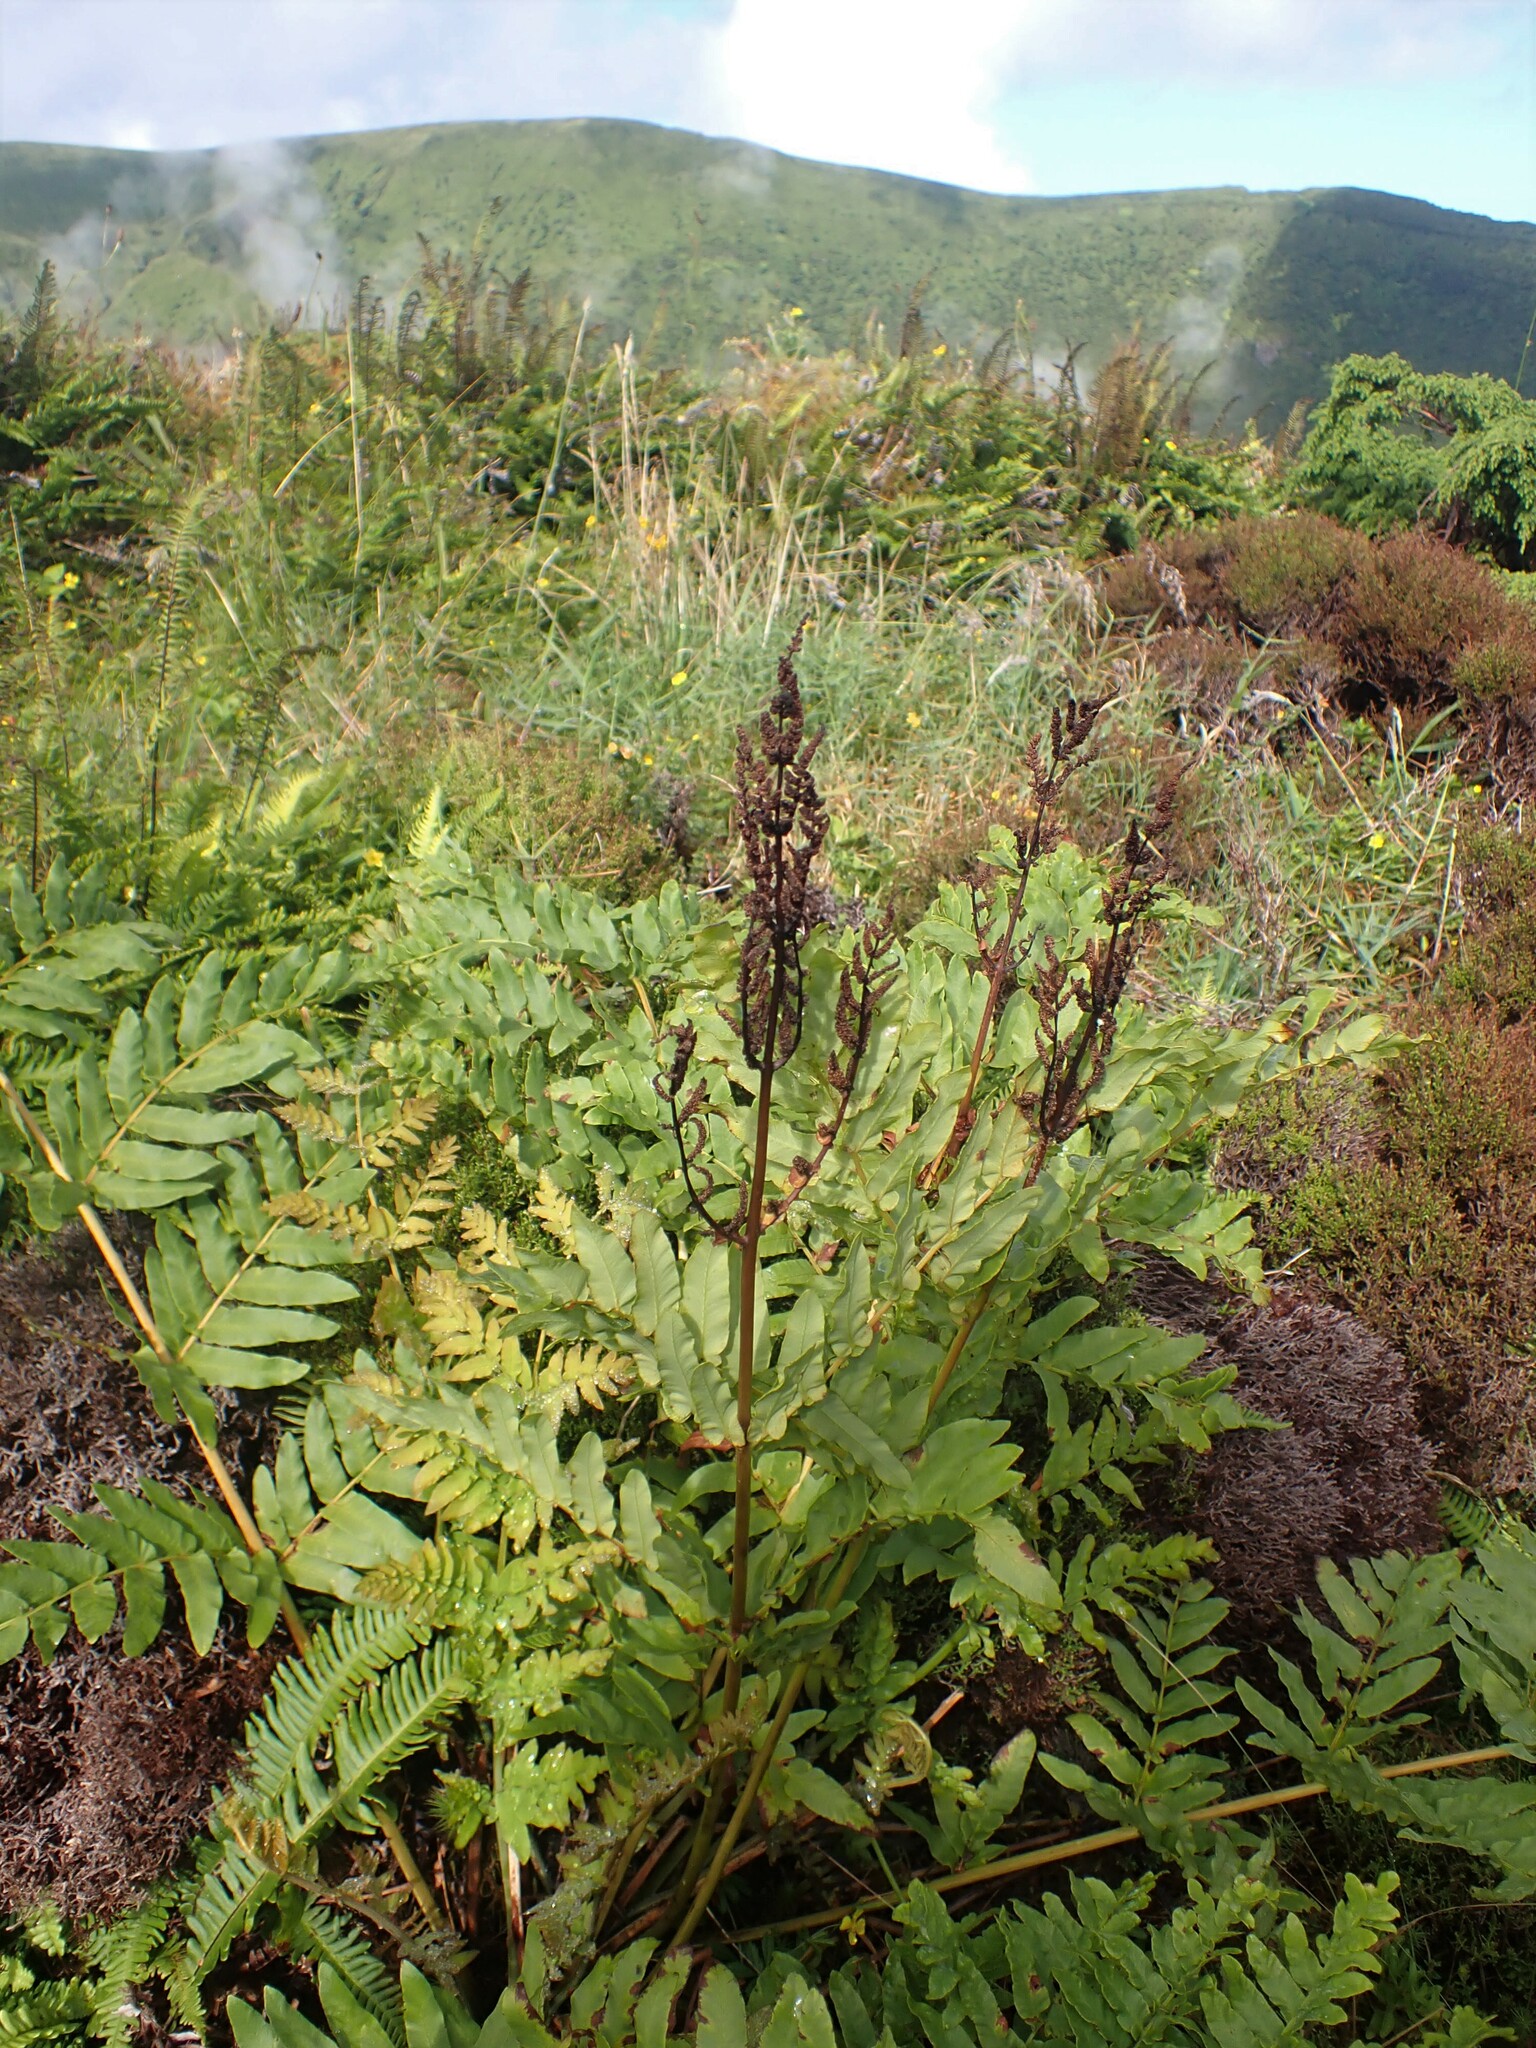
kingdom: Plantae
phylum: Tracheophyta
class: Polypodiopsida
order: Osmundales
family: Osmundaceae
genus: Osmunda
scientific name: Osmunda regalis
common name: Royal fern
